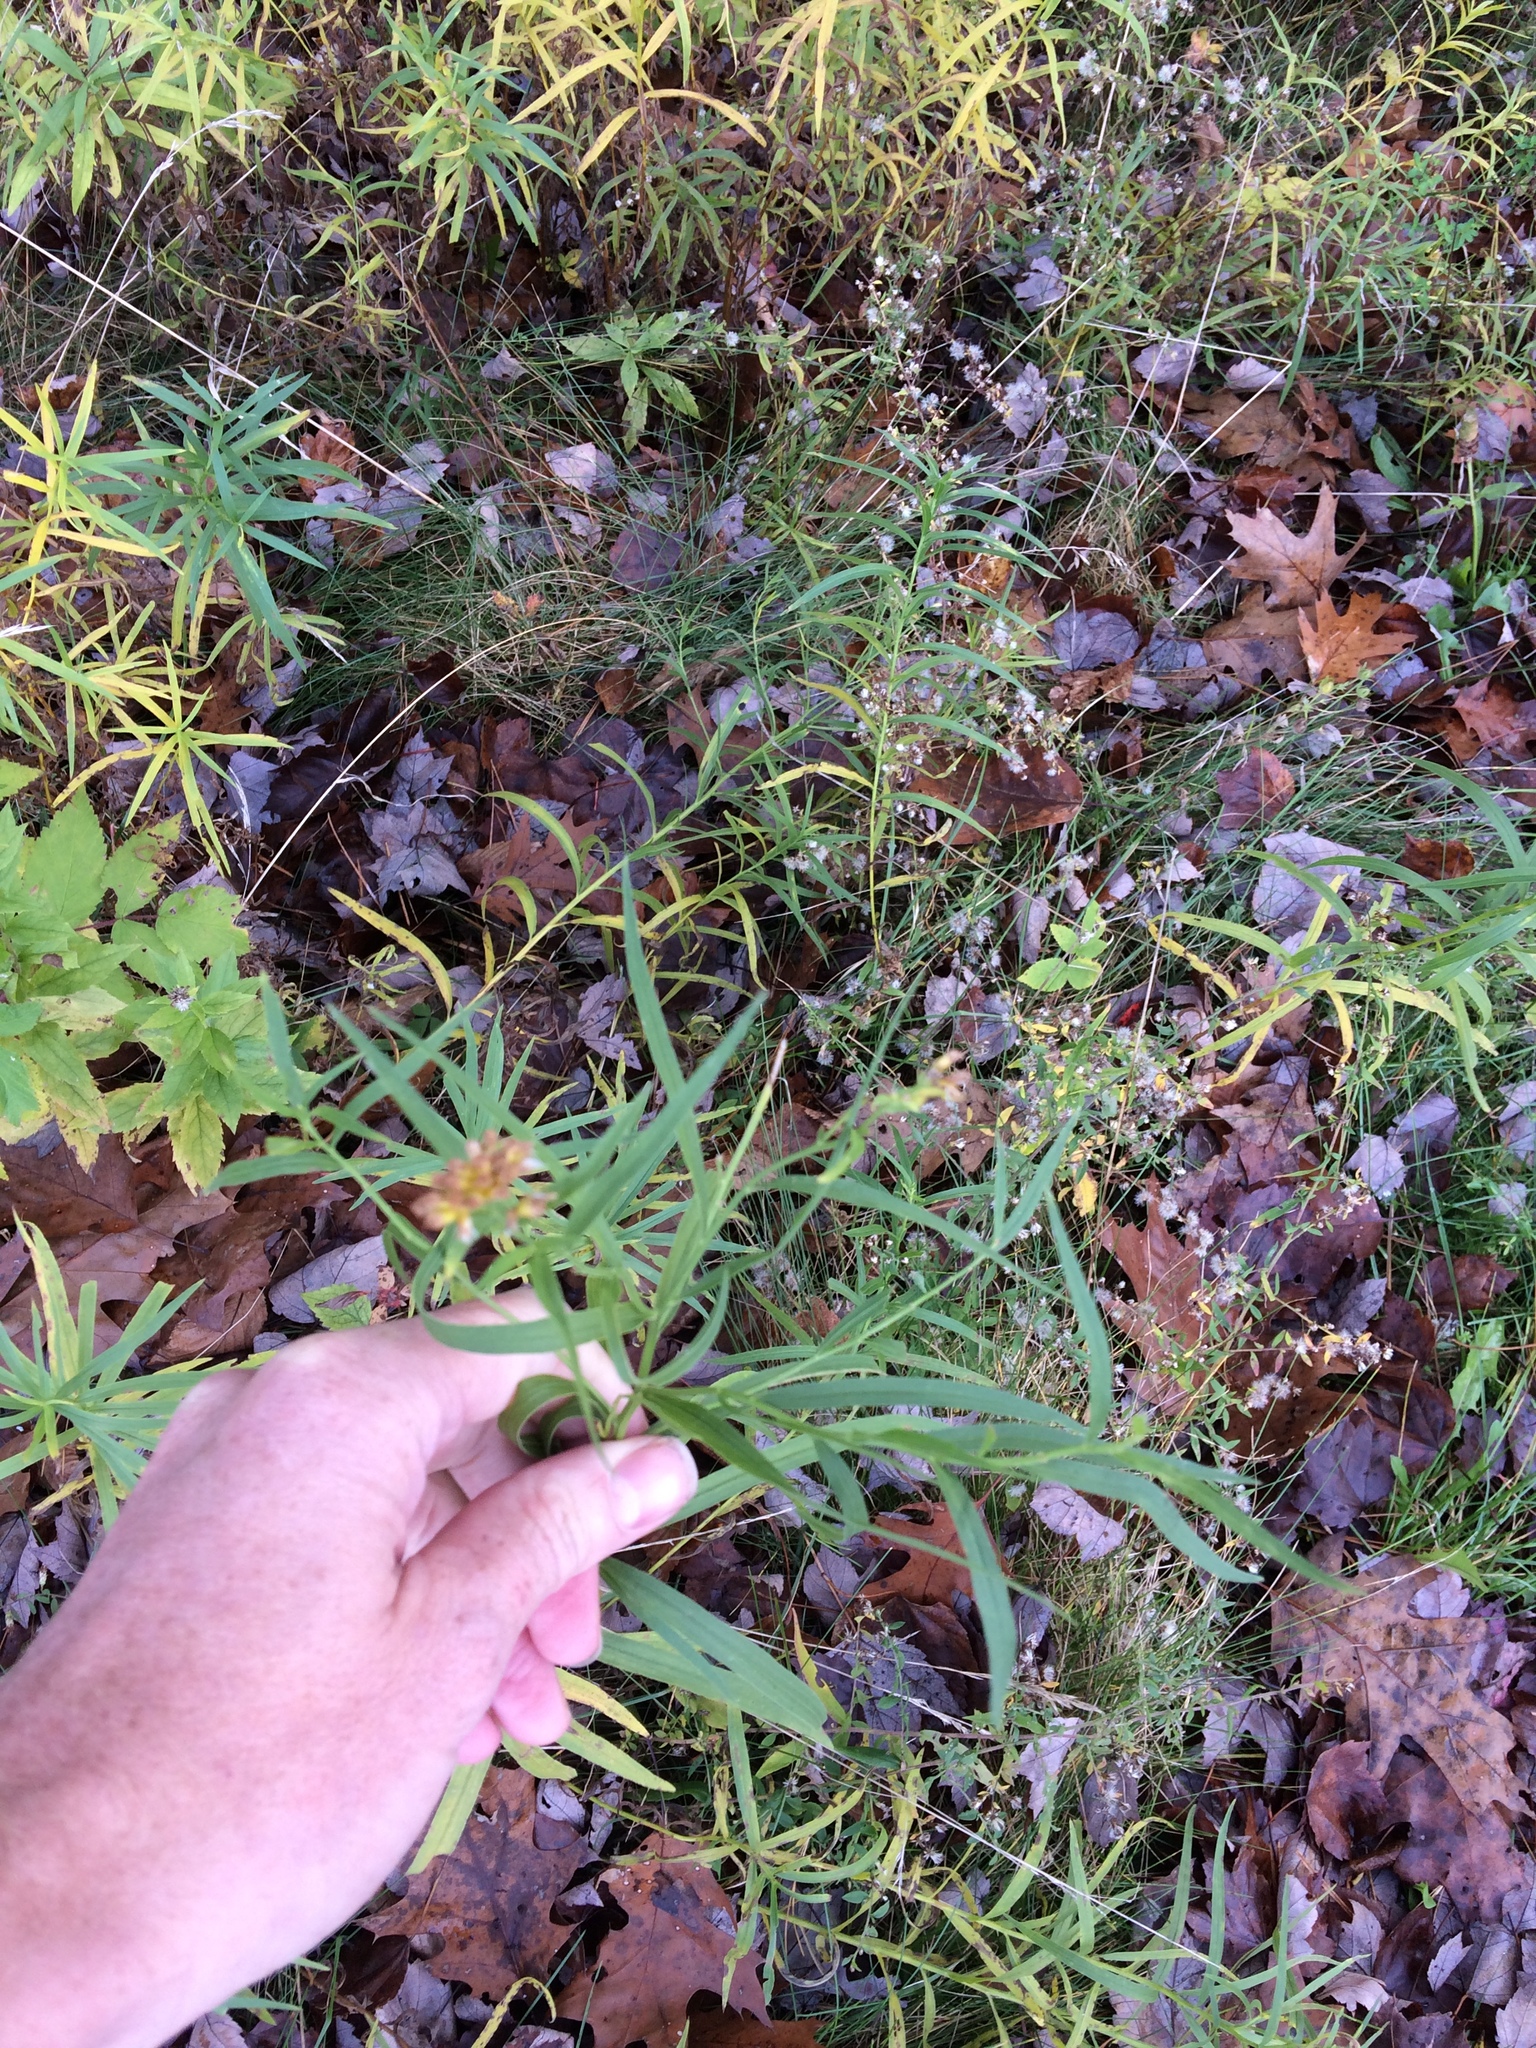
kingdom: Plantae
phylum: Tracheophyta
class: Magnoliopsida
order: Asterales
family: Asteraceae
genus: Euthamia
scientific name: Euthamia graminifolia
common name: Common goldentop
